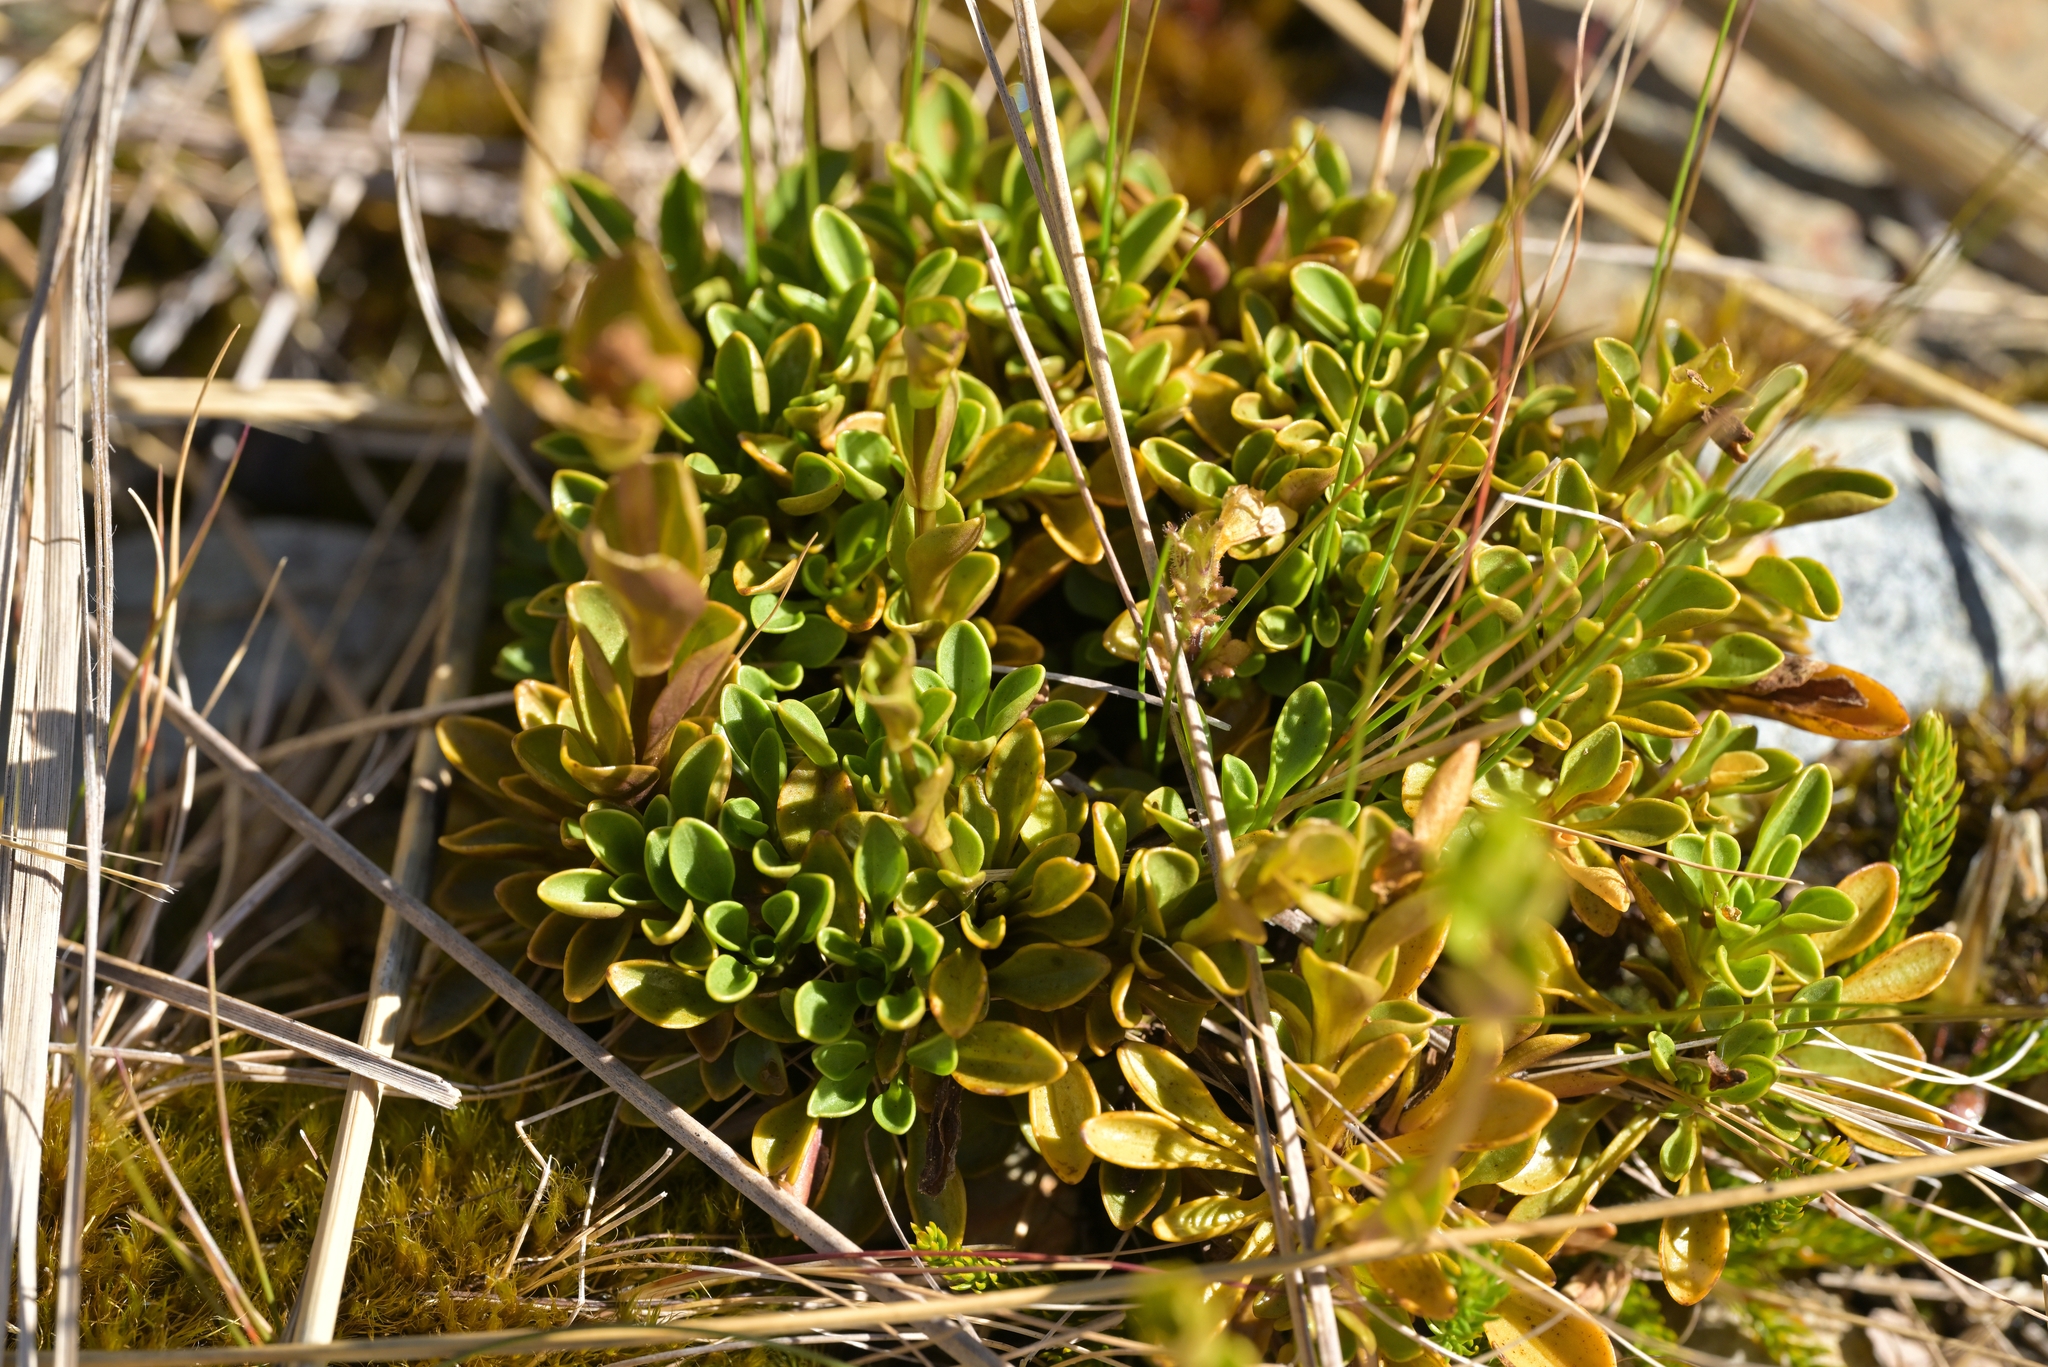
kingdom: Plantae
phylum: Tracheophyta
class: Magnoliopsida
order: Gentianales
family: Gentianaceae
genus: Gentianella
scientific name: Gentianella bellidifolia
